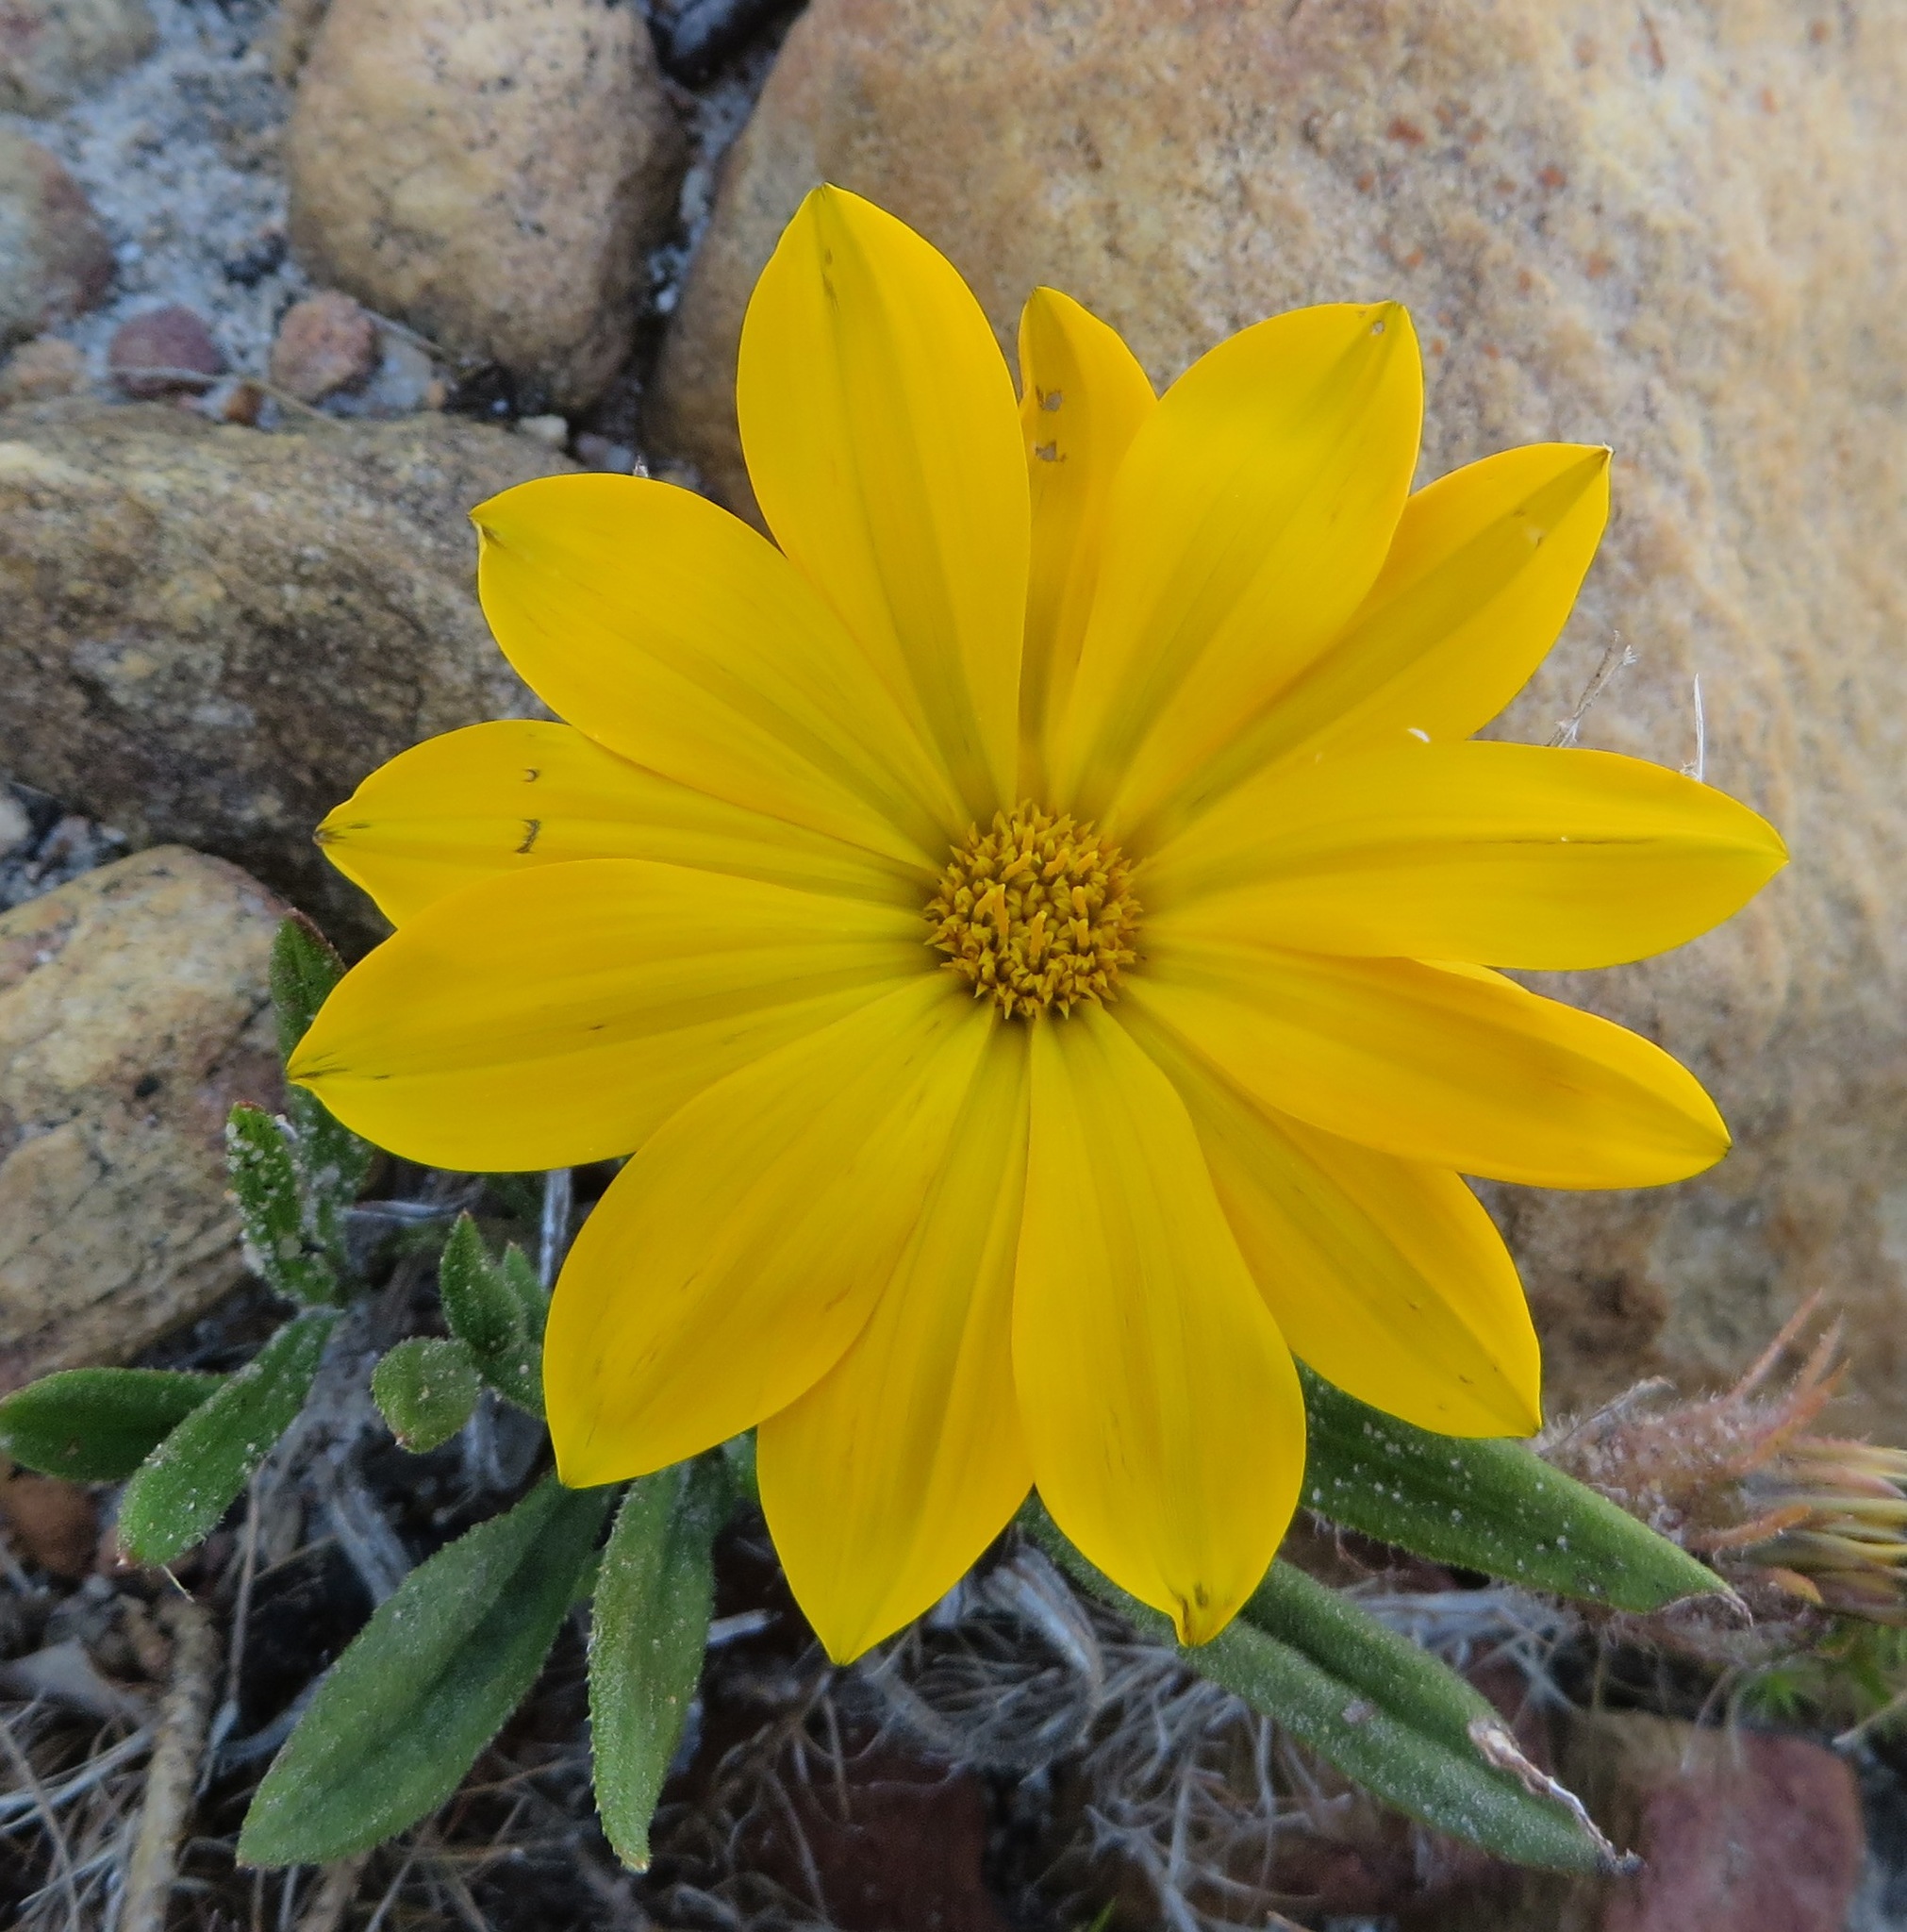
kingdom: Plantae
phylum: Tracheophyta
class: Magnoliopsida
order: Asterales
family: Asteraceae
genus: Gazania
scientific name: Gazania serrata
